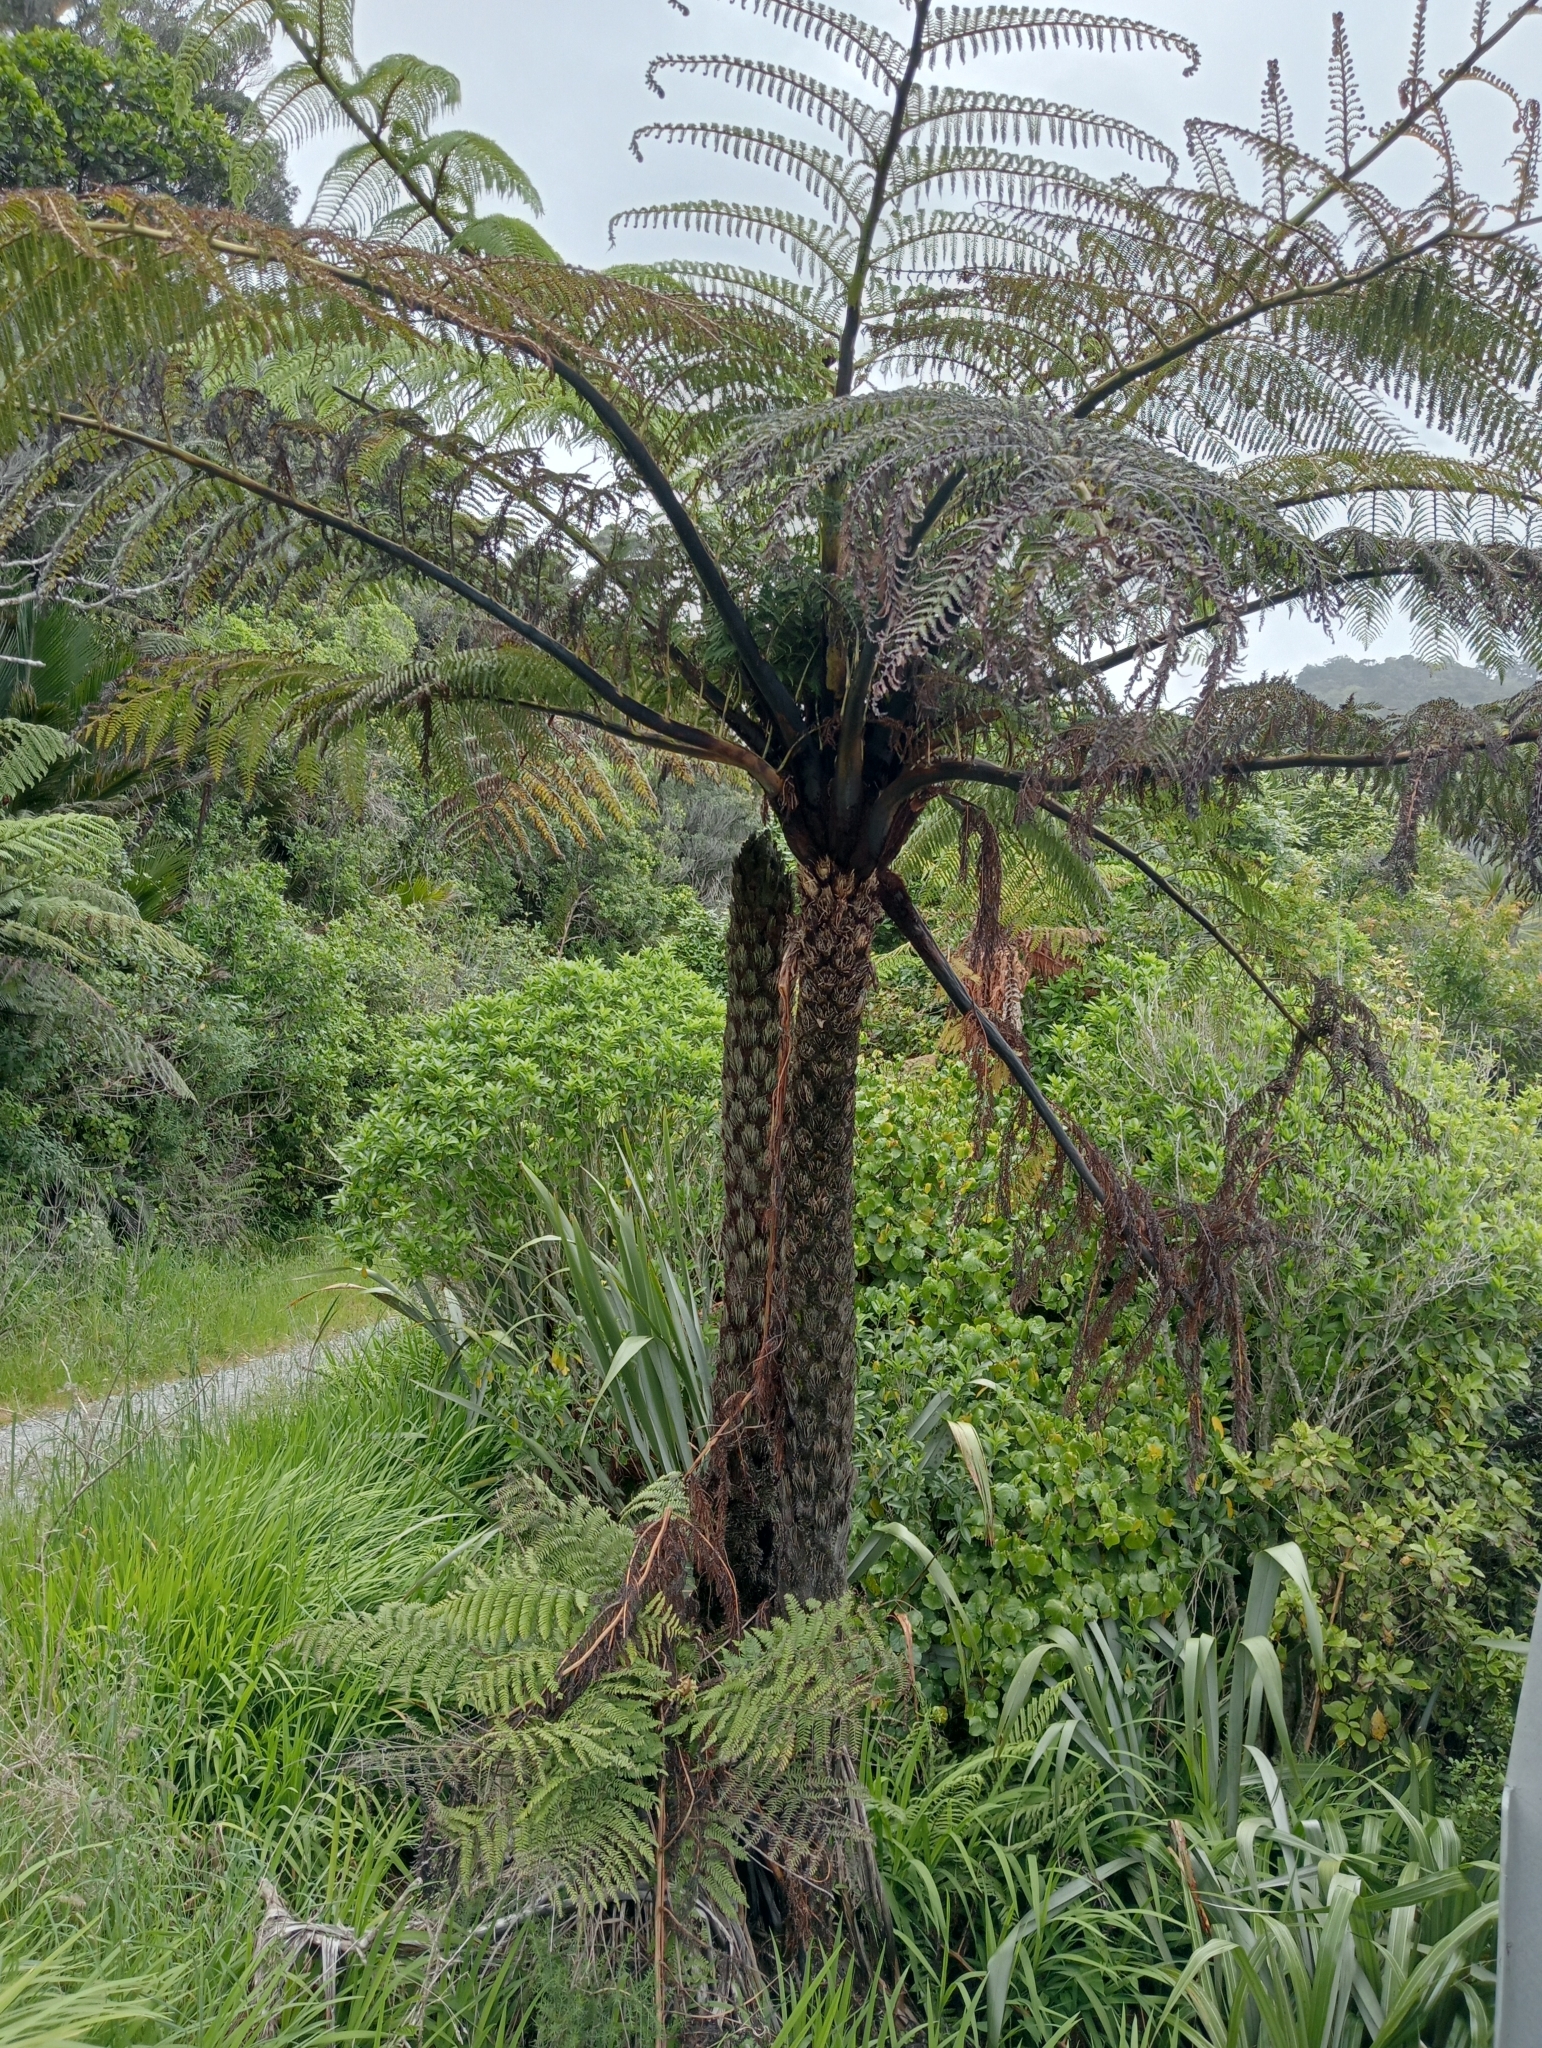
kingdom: Plantae
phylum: Tracheophyta
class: Polypodiopsida
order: Cyatheales
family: Cyatheaceae
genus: Sphaeropteris
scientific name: Sphaeropteris medullaris
